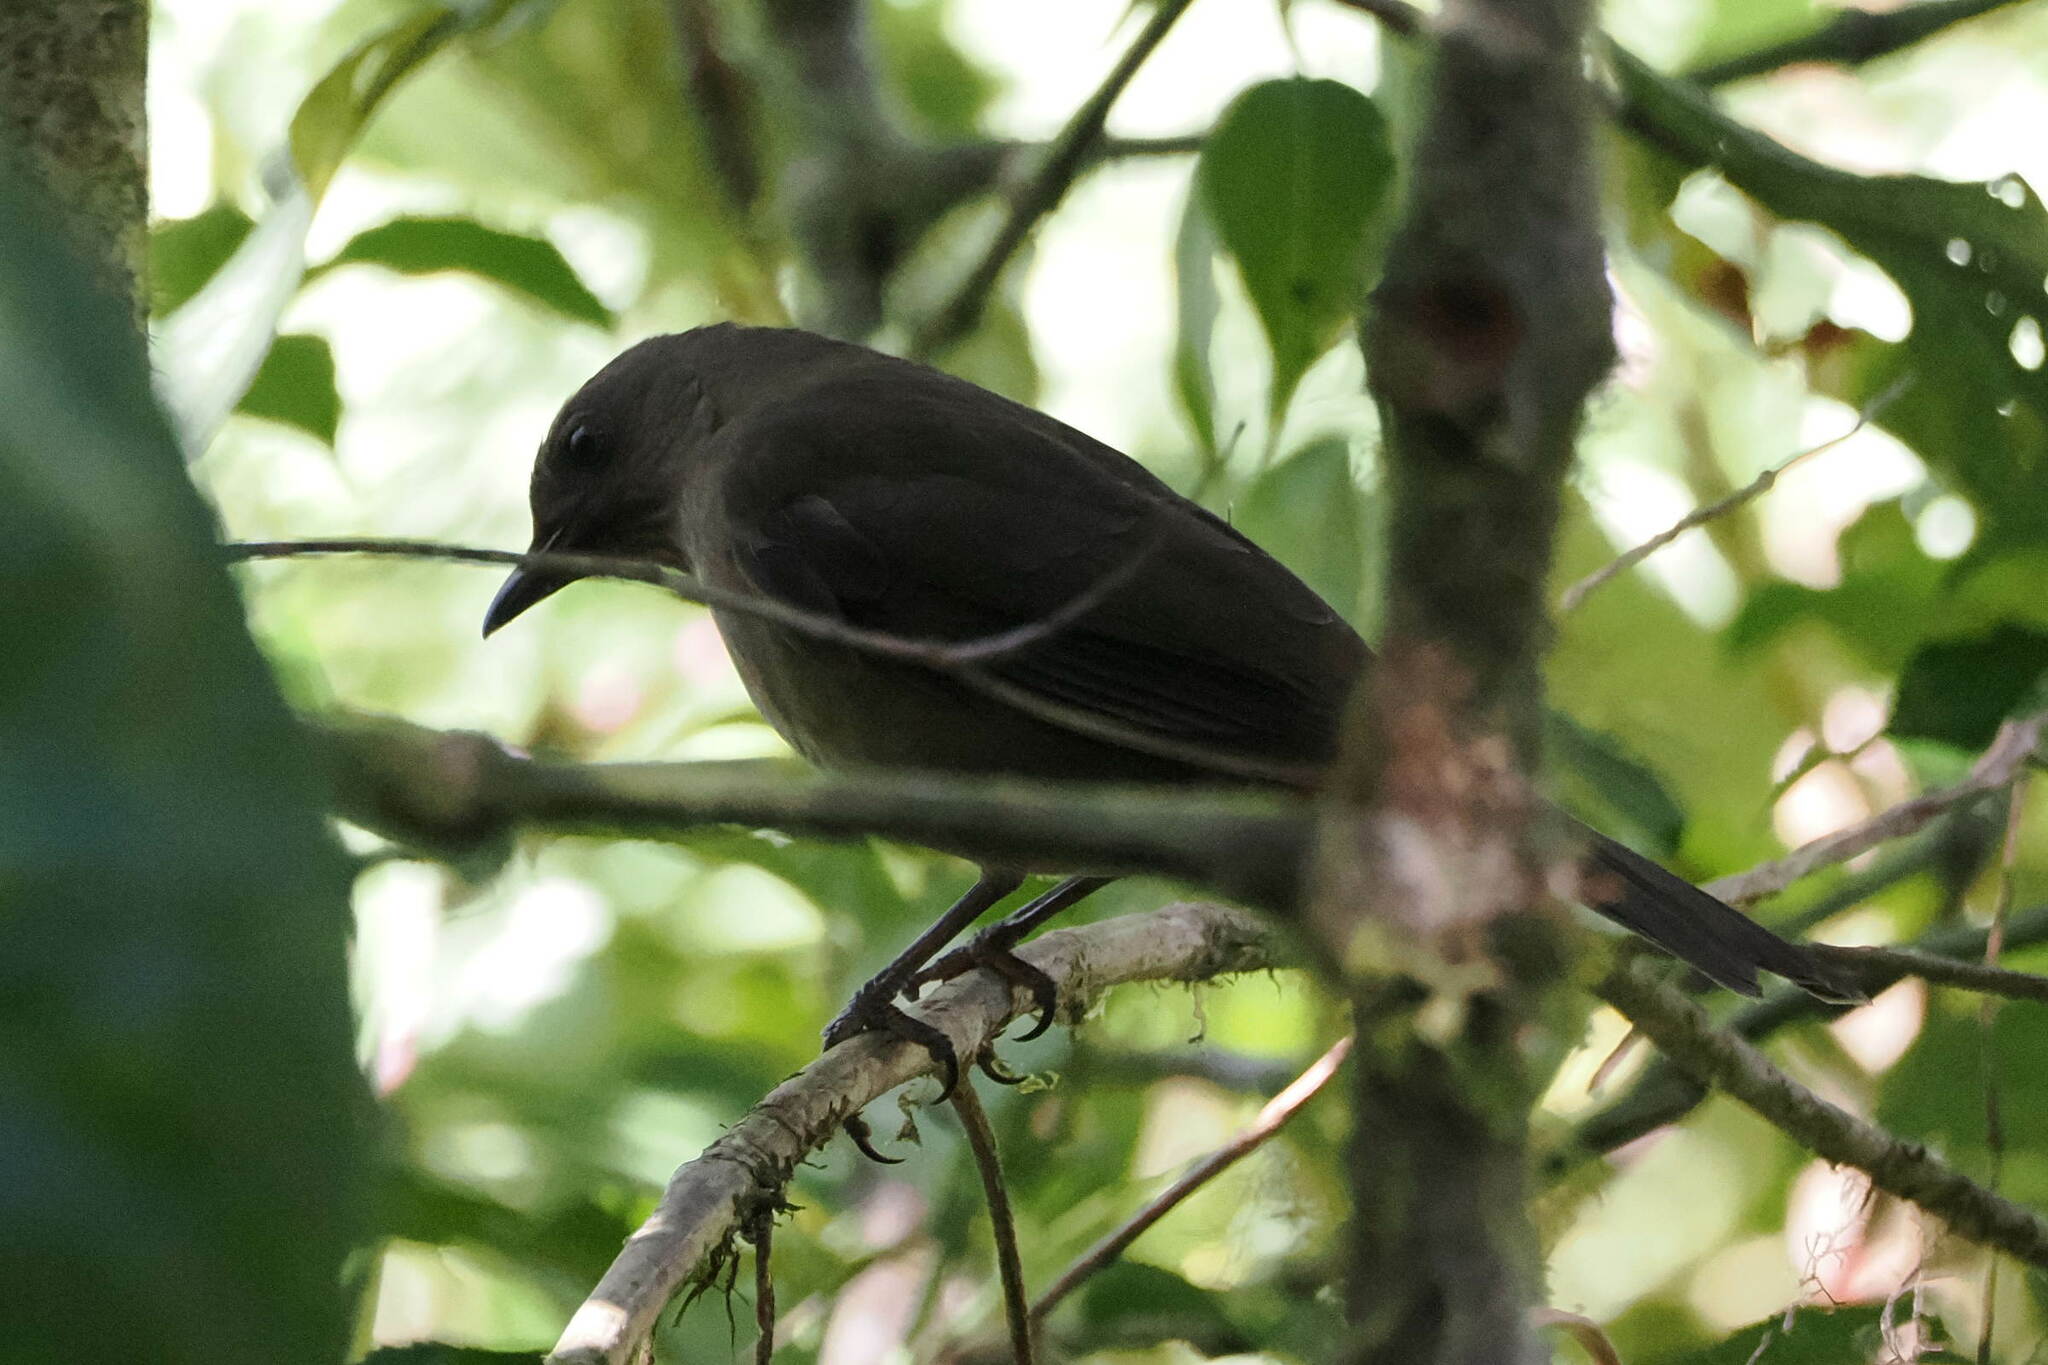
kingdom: Animalia
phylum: Chordata
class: Aves
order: Passeriformes
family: Turdidae
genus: Turdus
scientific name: Turdus plebejus
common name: Mountain thrush
